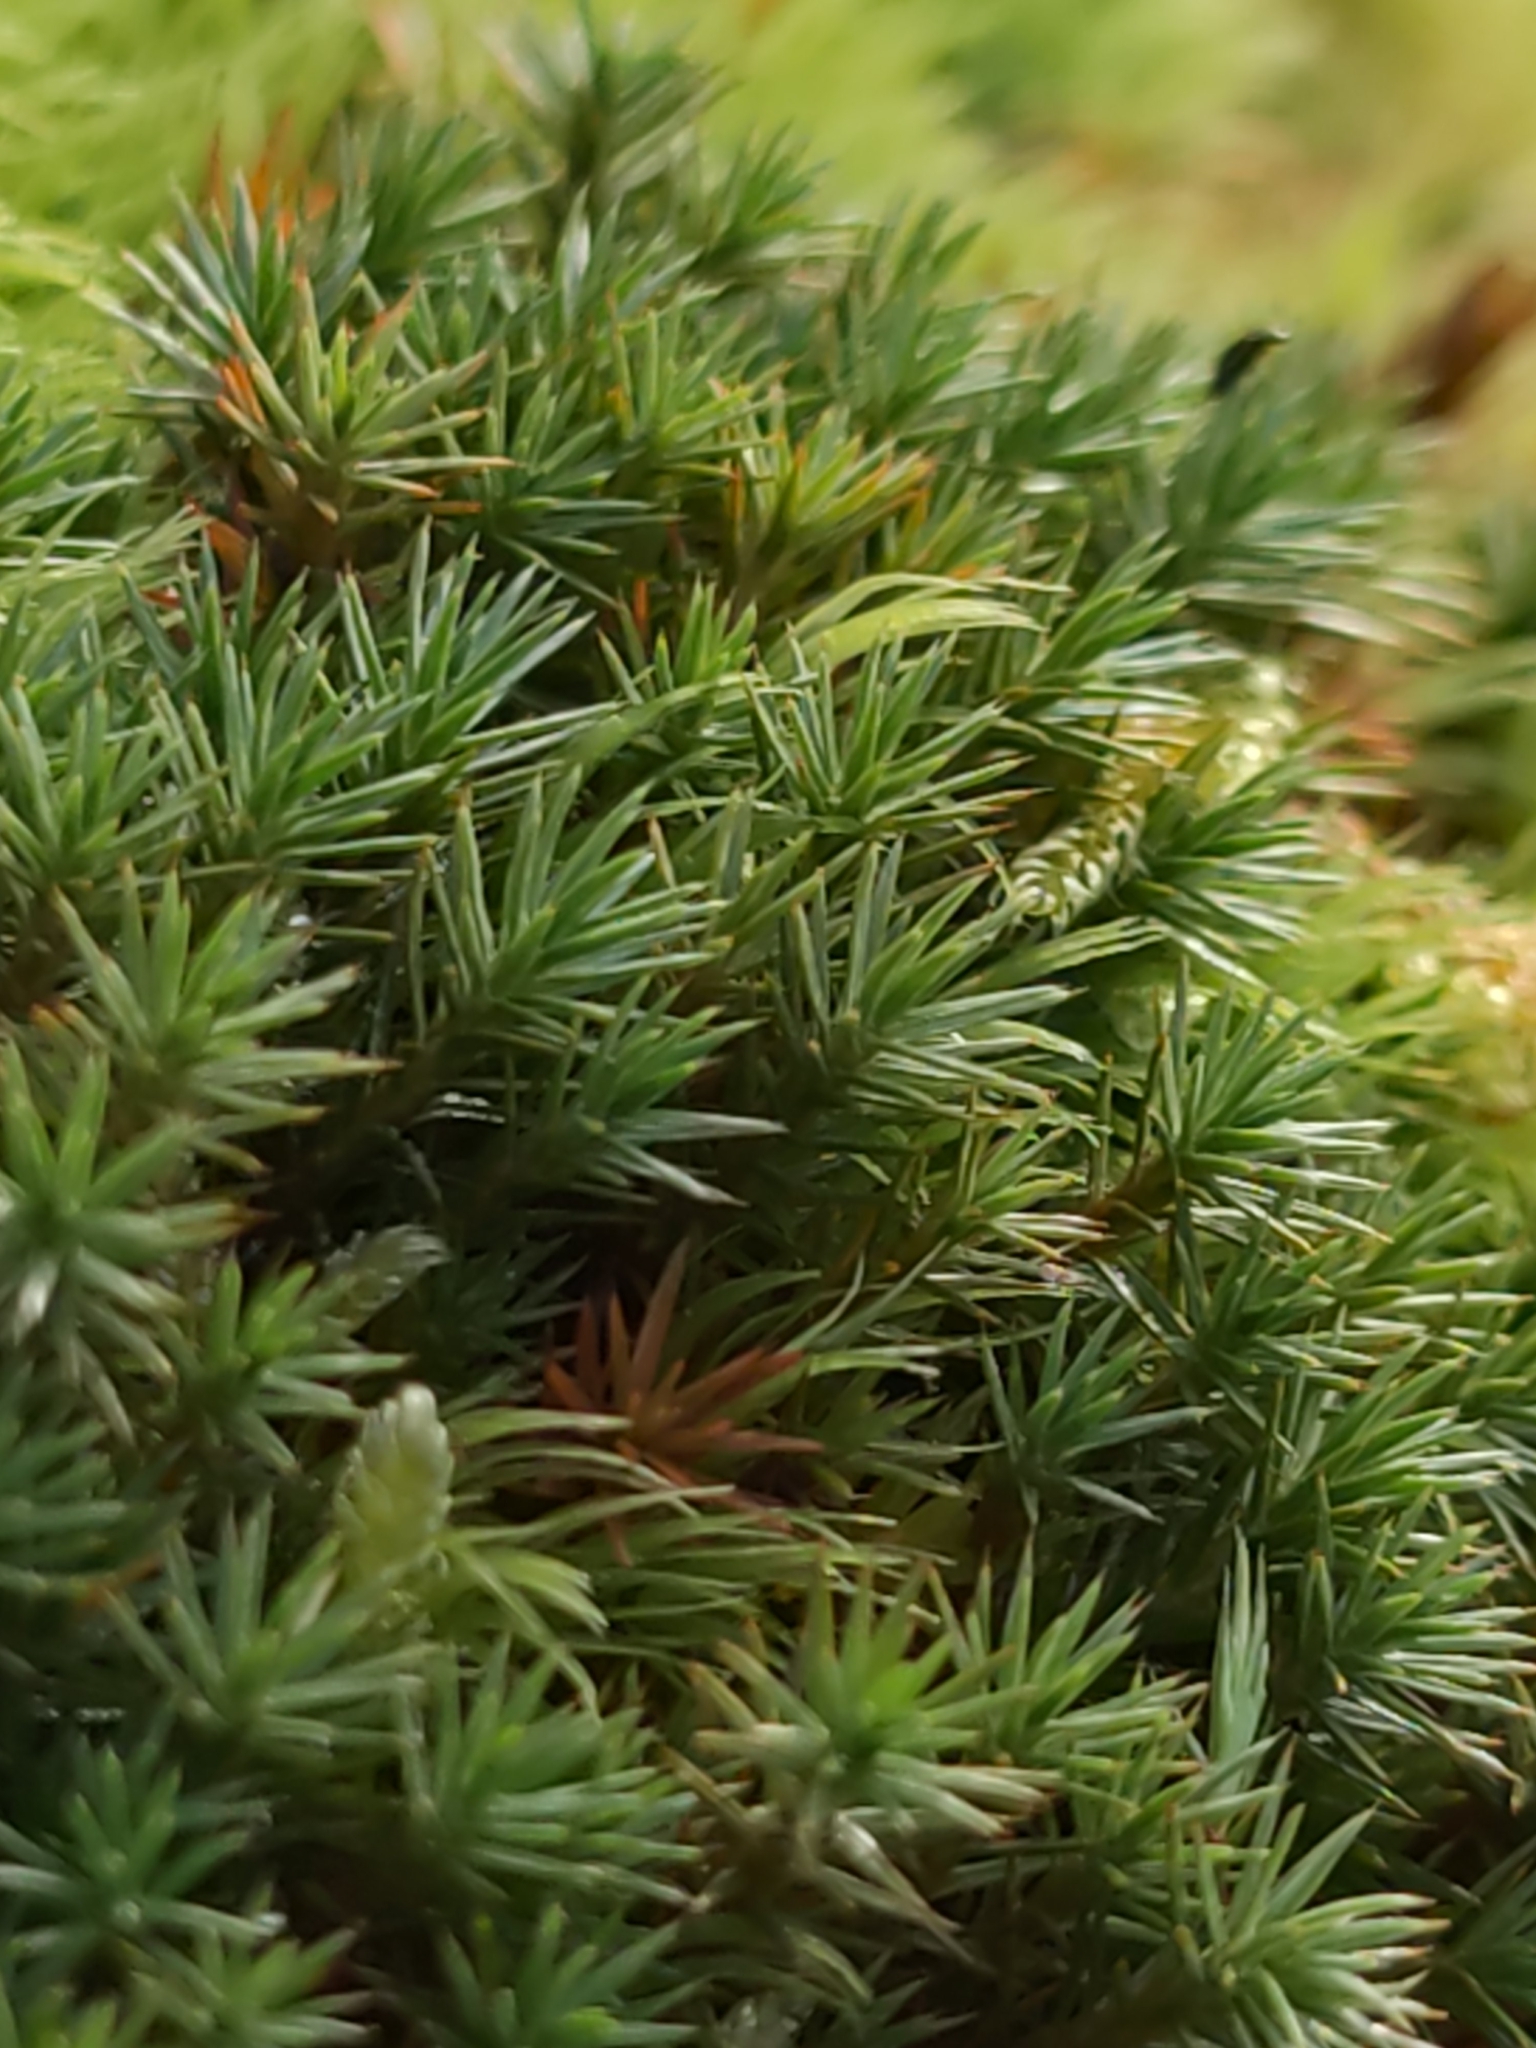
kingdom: Plantae
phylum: Bryophyta
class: Polytrichopsida
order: Polytrichales
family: Polytrichaceae
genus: Polytrichum
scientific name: Polytrichum juniperinum
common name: Juniper haircap moss
